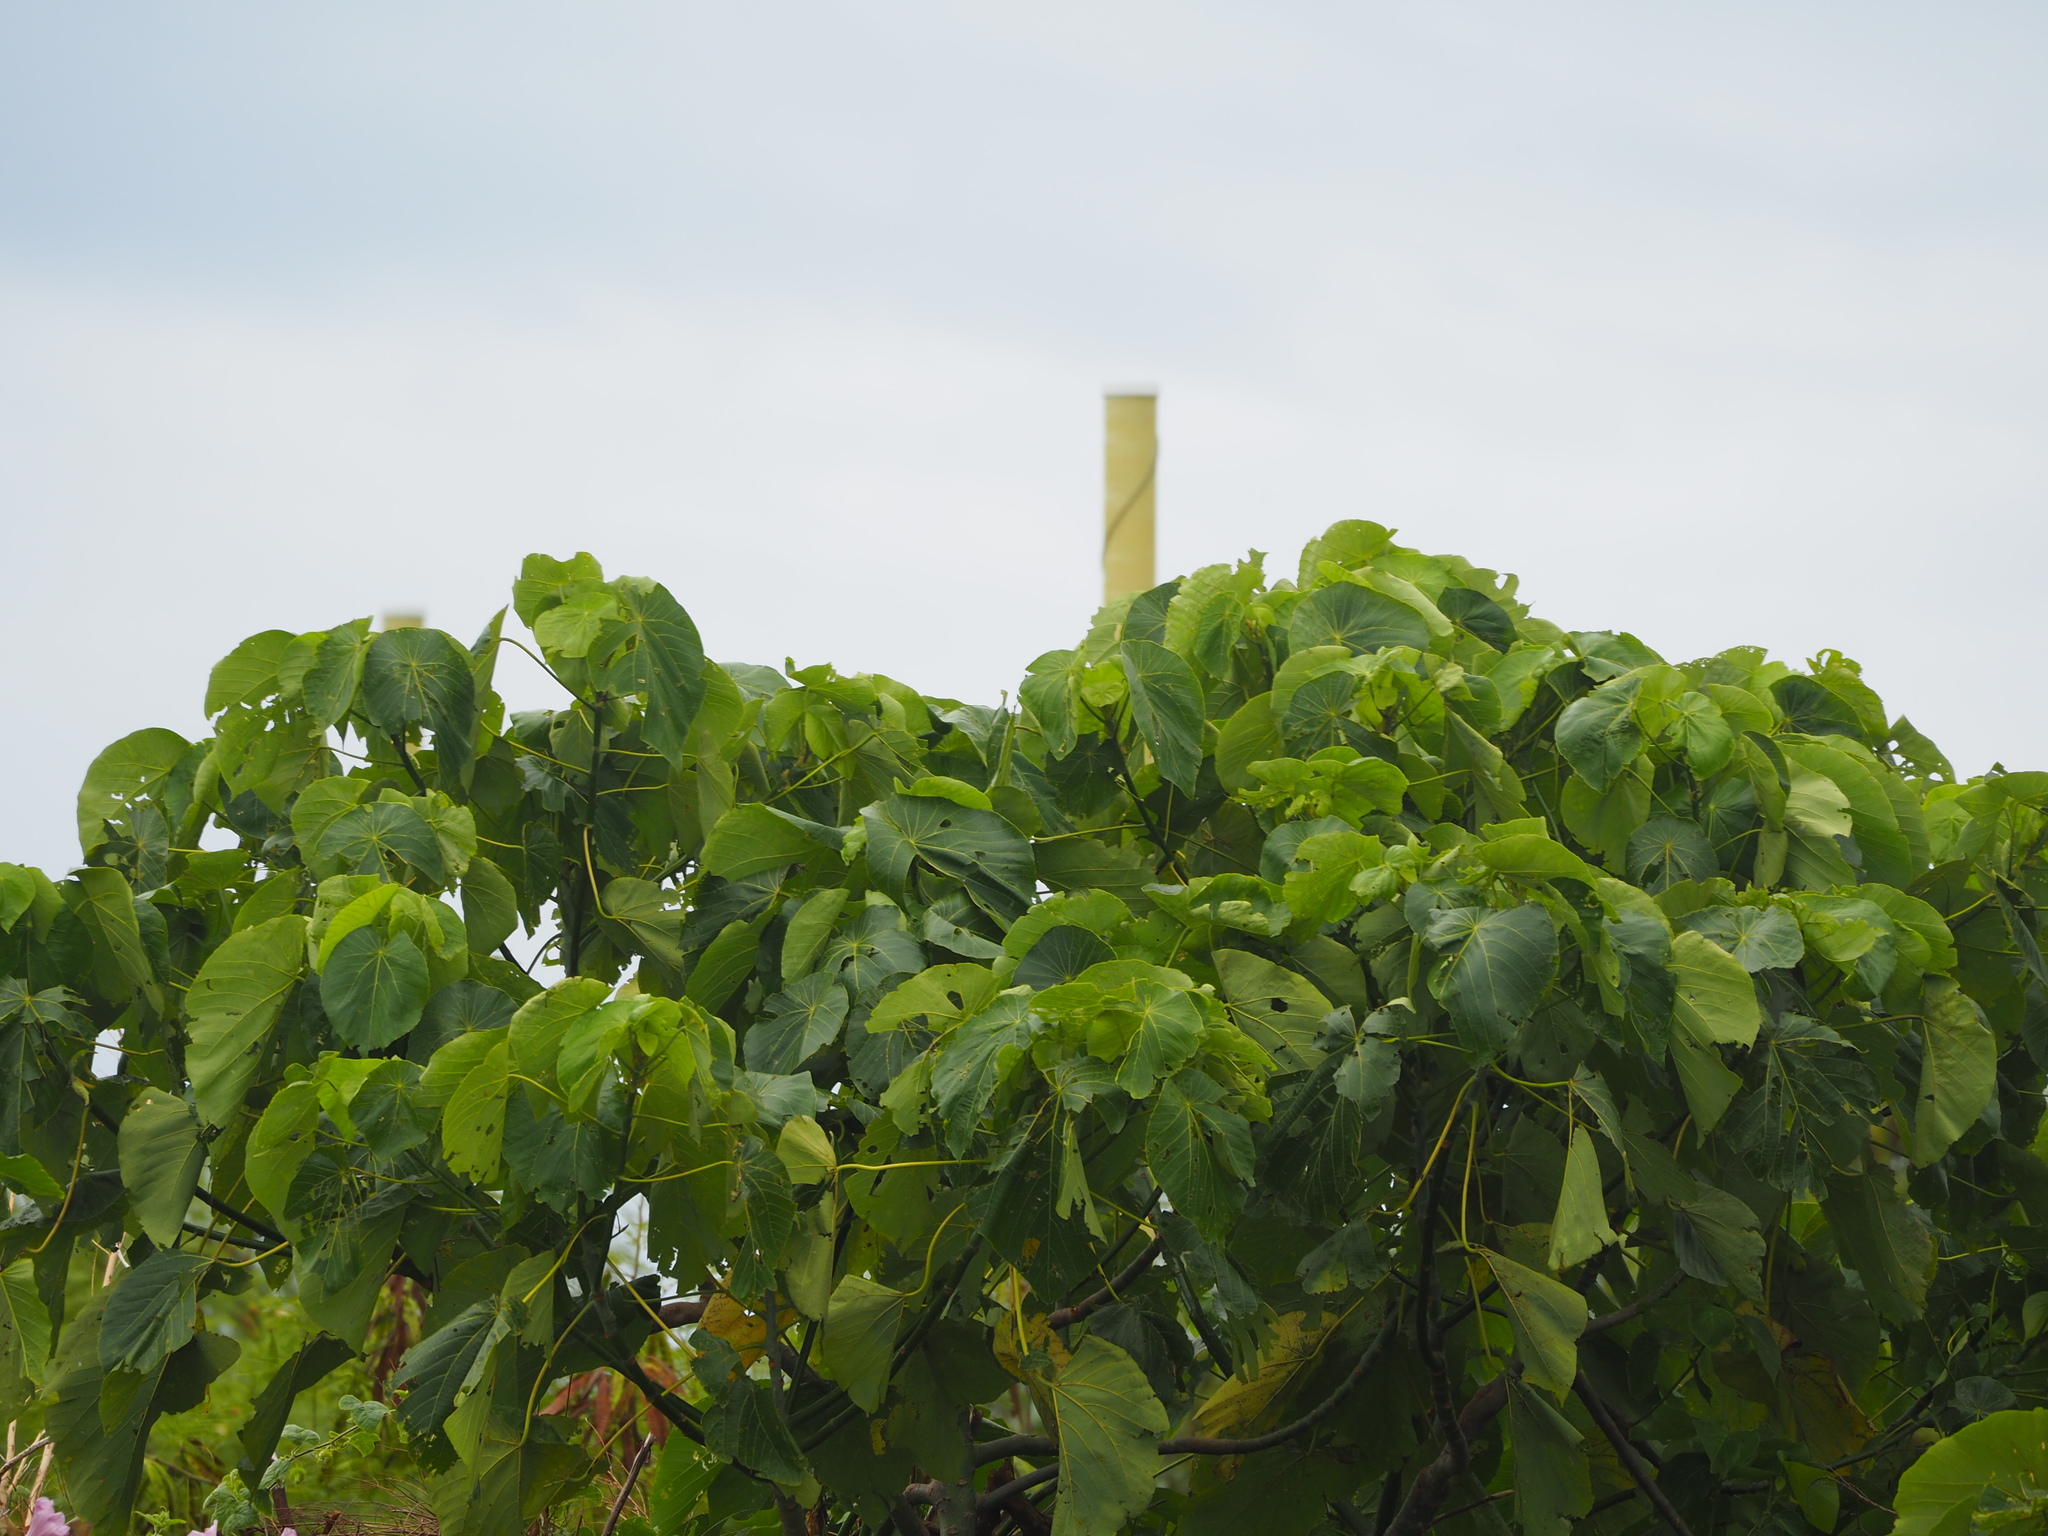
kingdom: Plantae
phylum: Tracheophyta
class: Magnoliopsida
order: Malpighiales
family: Euphorbiaceae
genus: Macaranga
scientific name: Macaranga tanarius
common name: Parasol leaf tree
